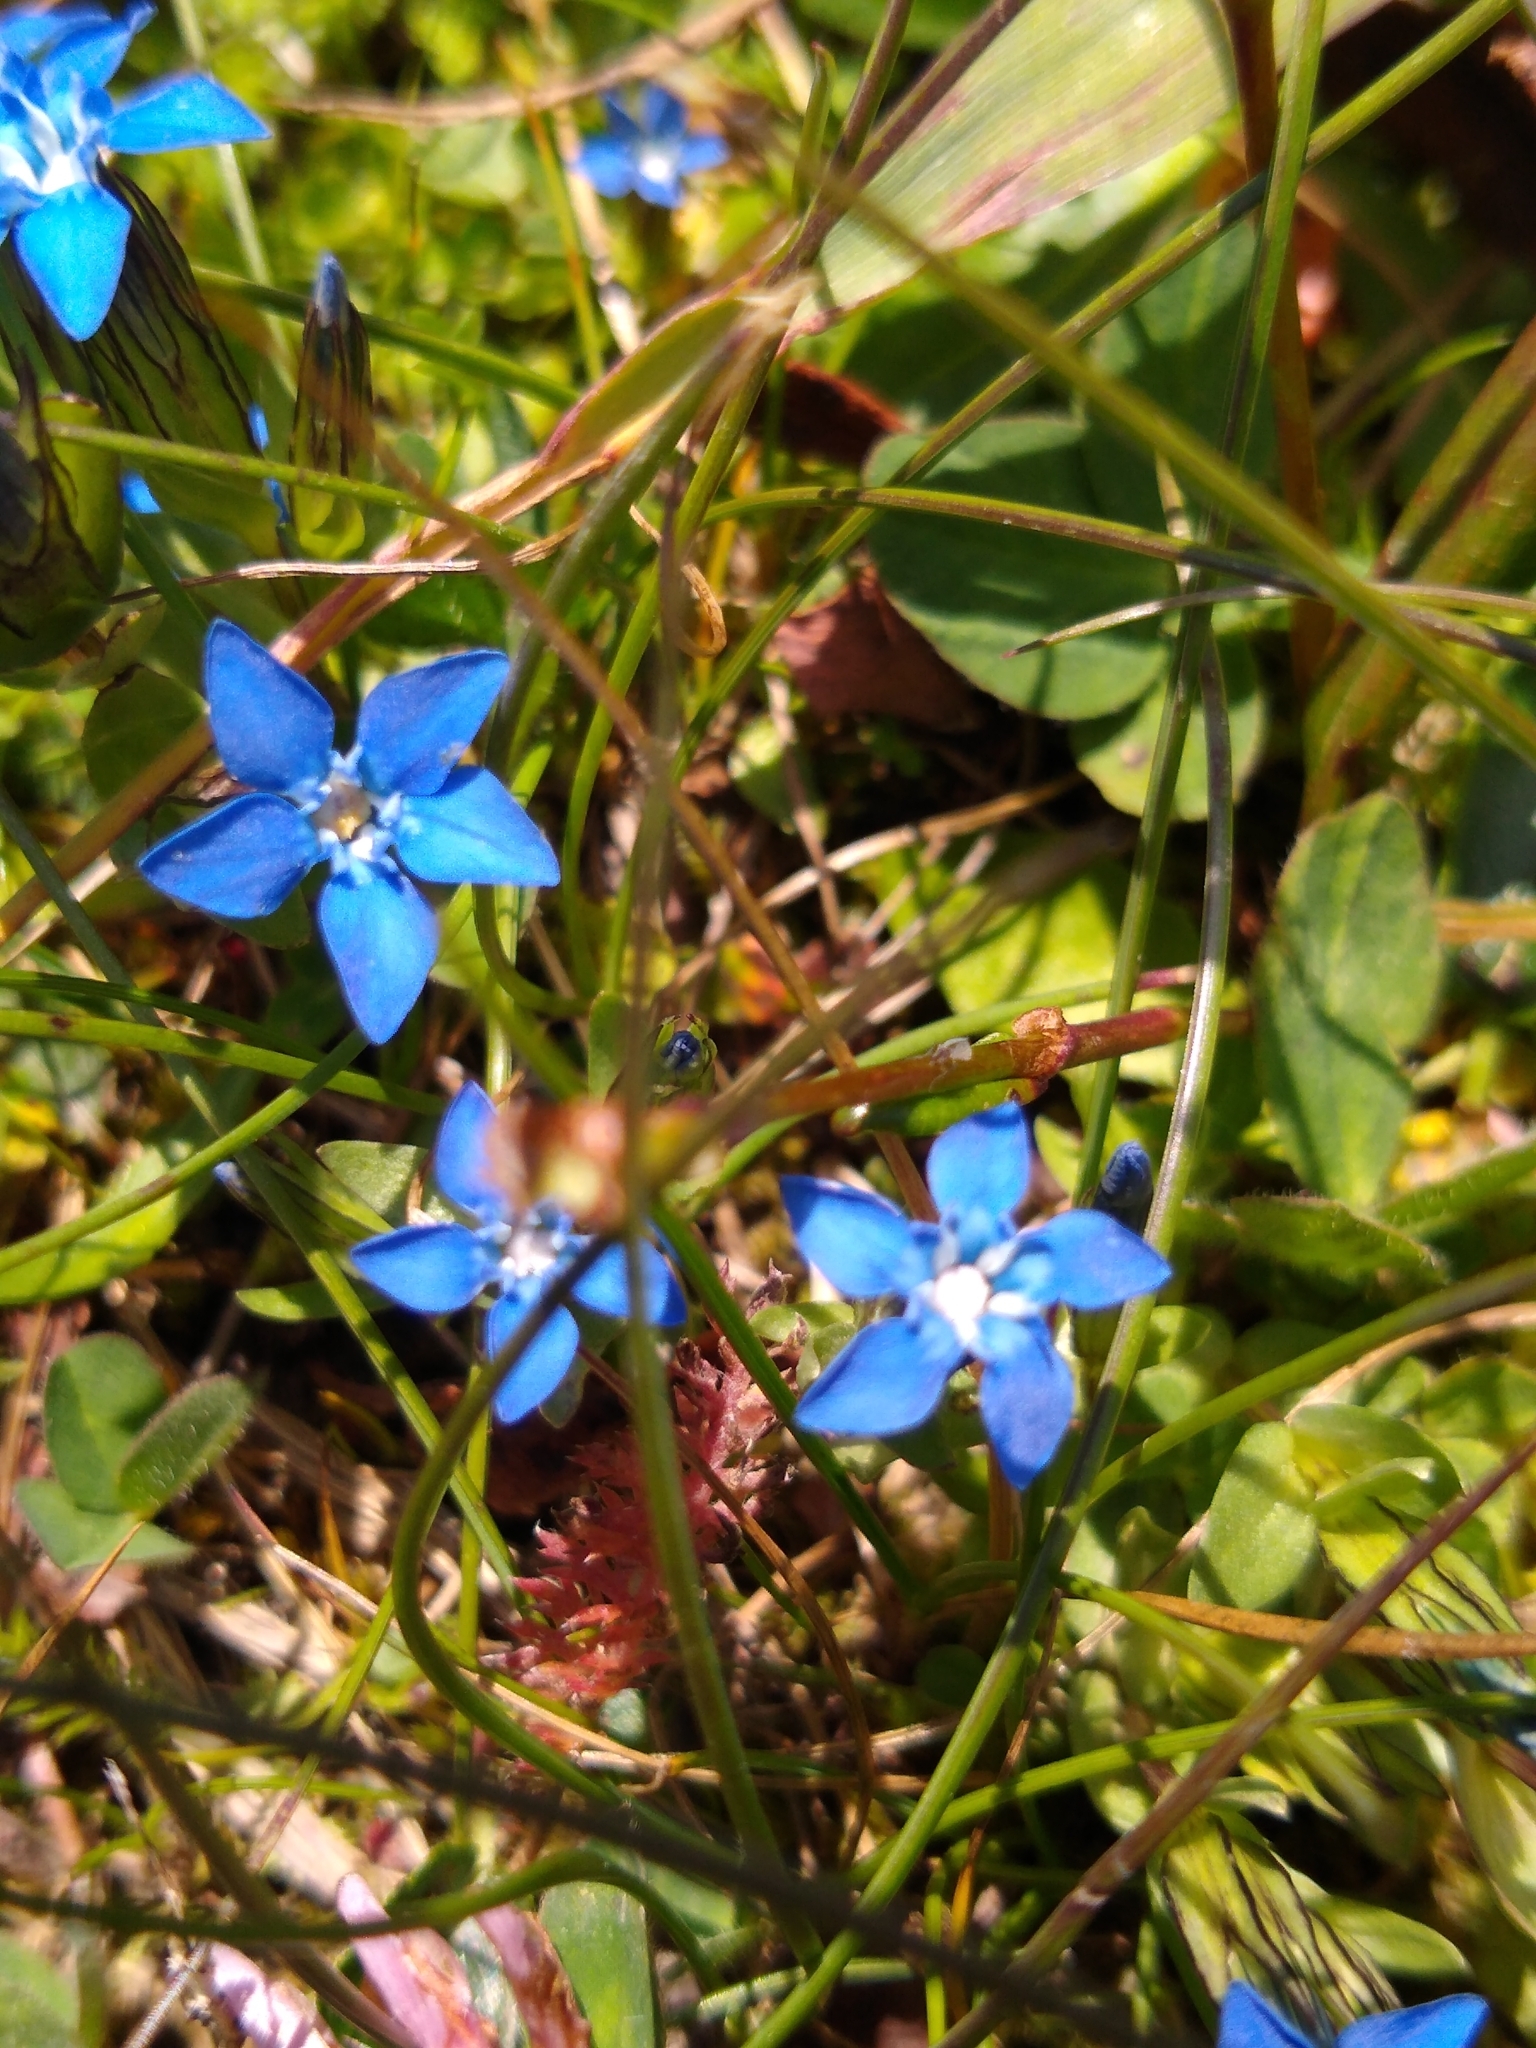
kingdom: Plantae
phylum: Tracheophyta
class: Magnoliopsida
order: Gentianales
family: Gentianaceae
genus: Gentiana
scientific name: Gentiana nivalis
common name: Alpine gentian
